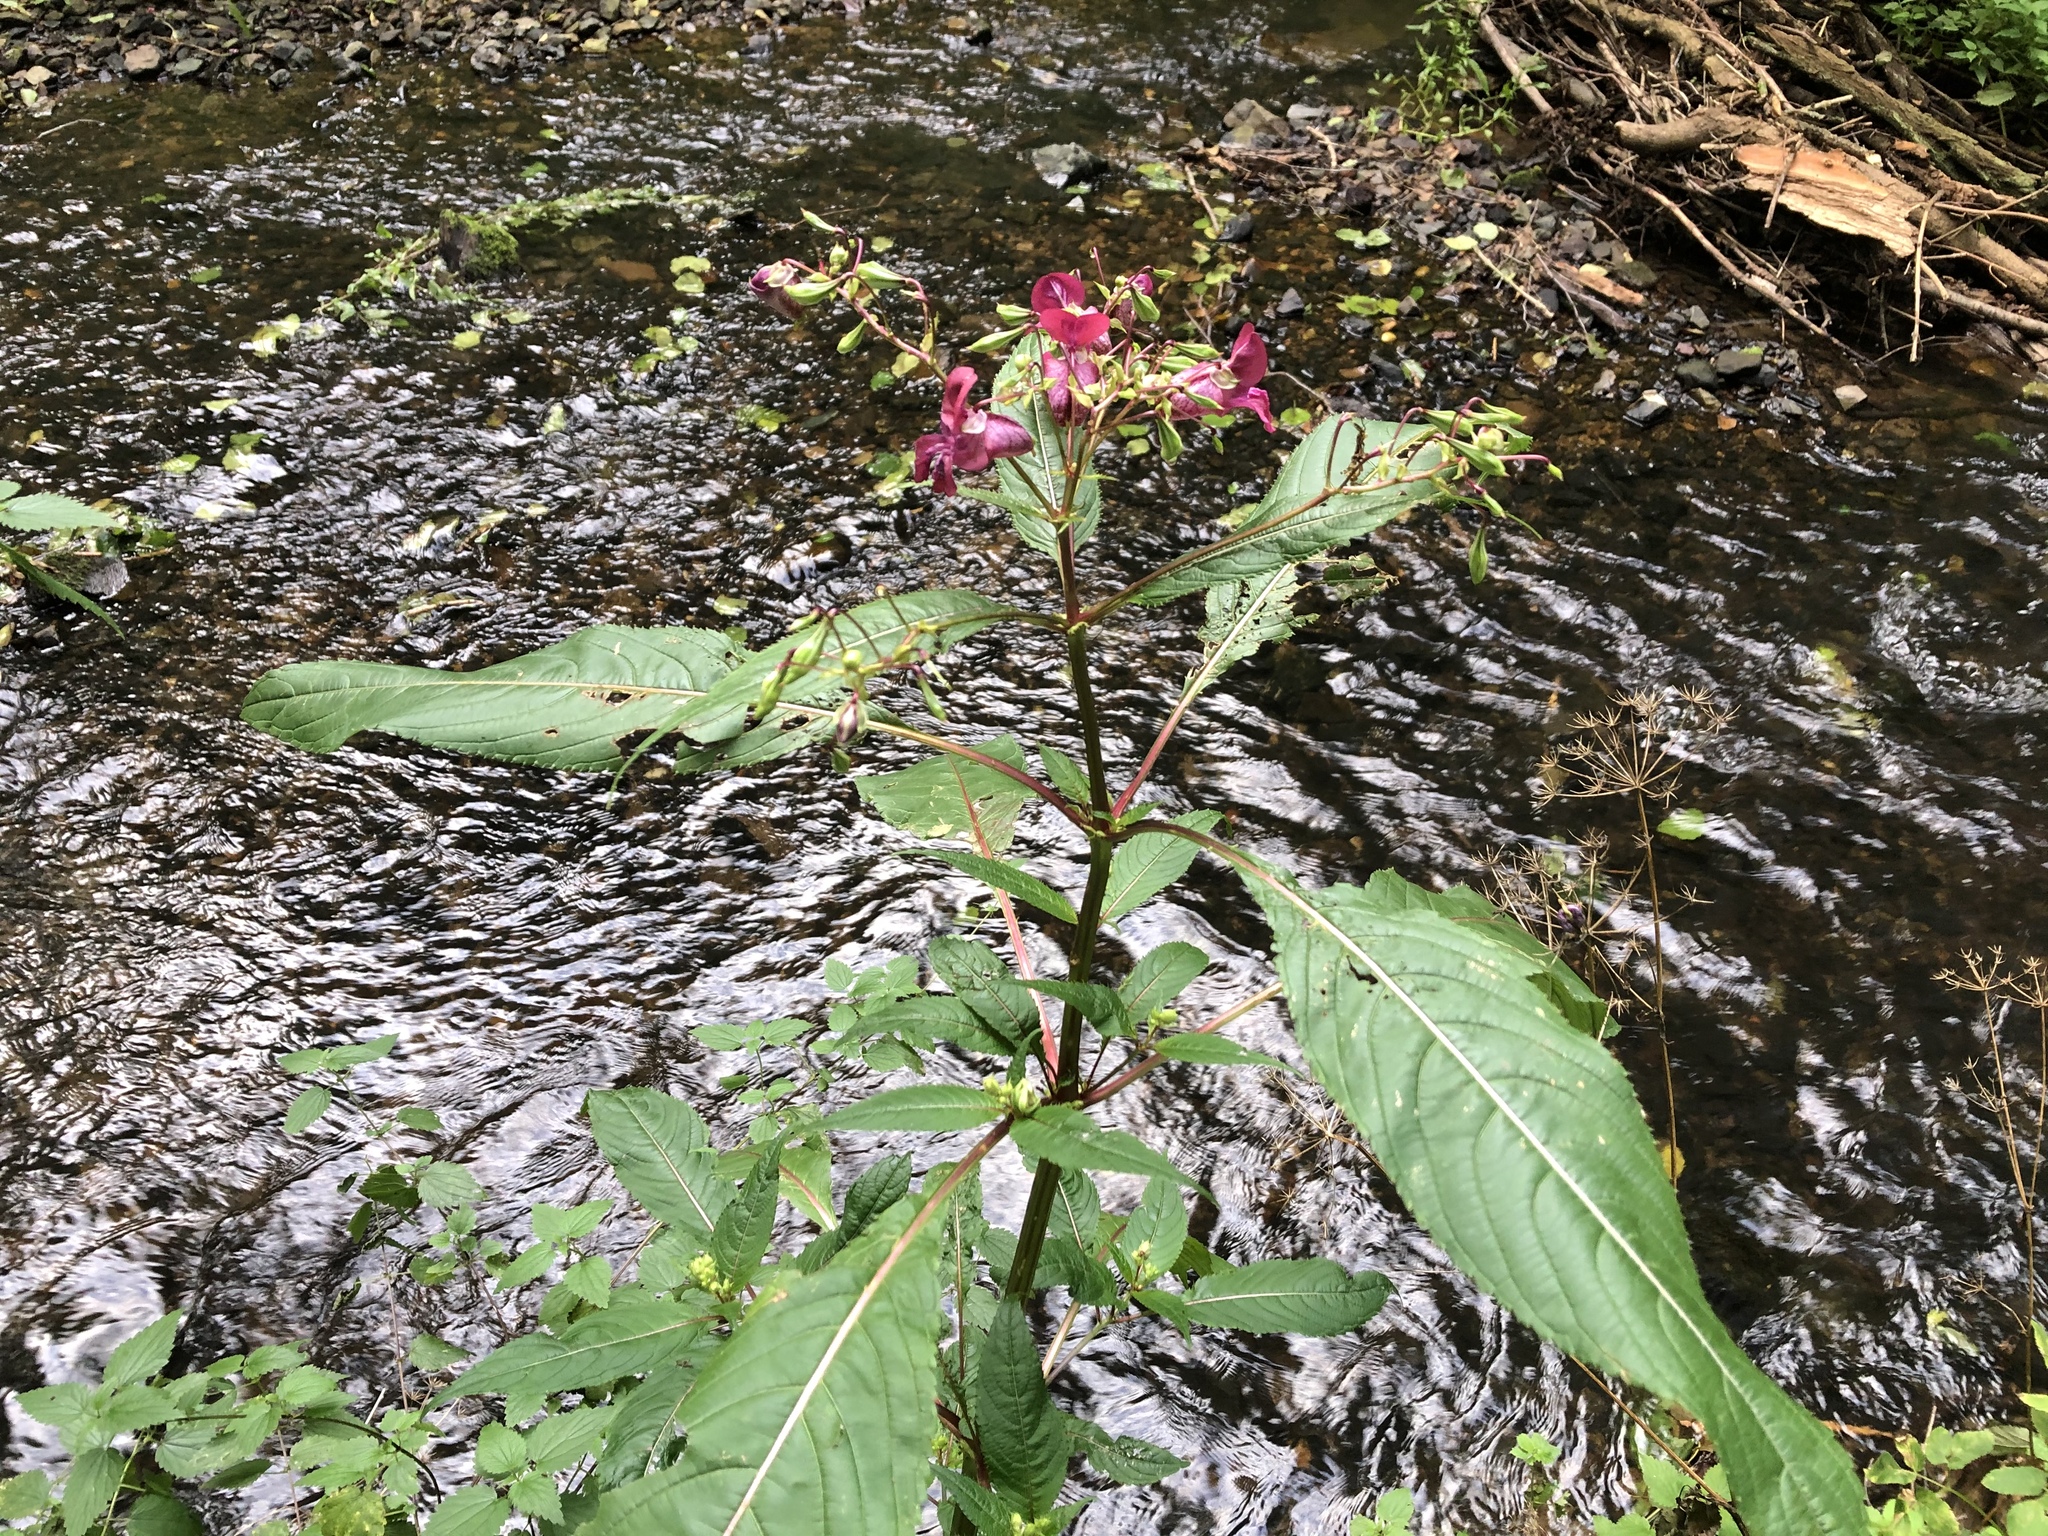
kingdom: Plantae
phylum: Tracheophyta
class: Magnoliopsida
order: Ericales
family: Balsaminaceae
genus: Impatiens
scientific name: Impatiens glandulifera
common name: Himalayan balsam
